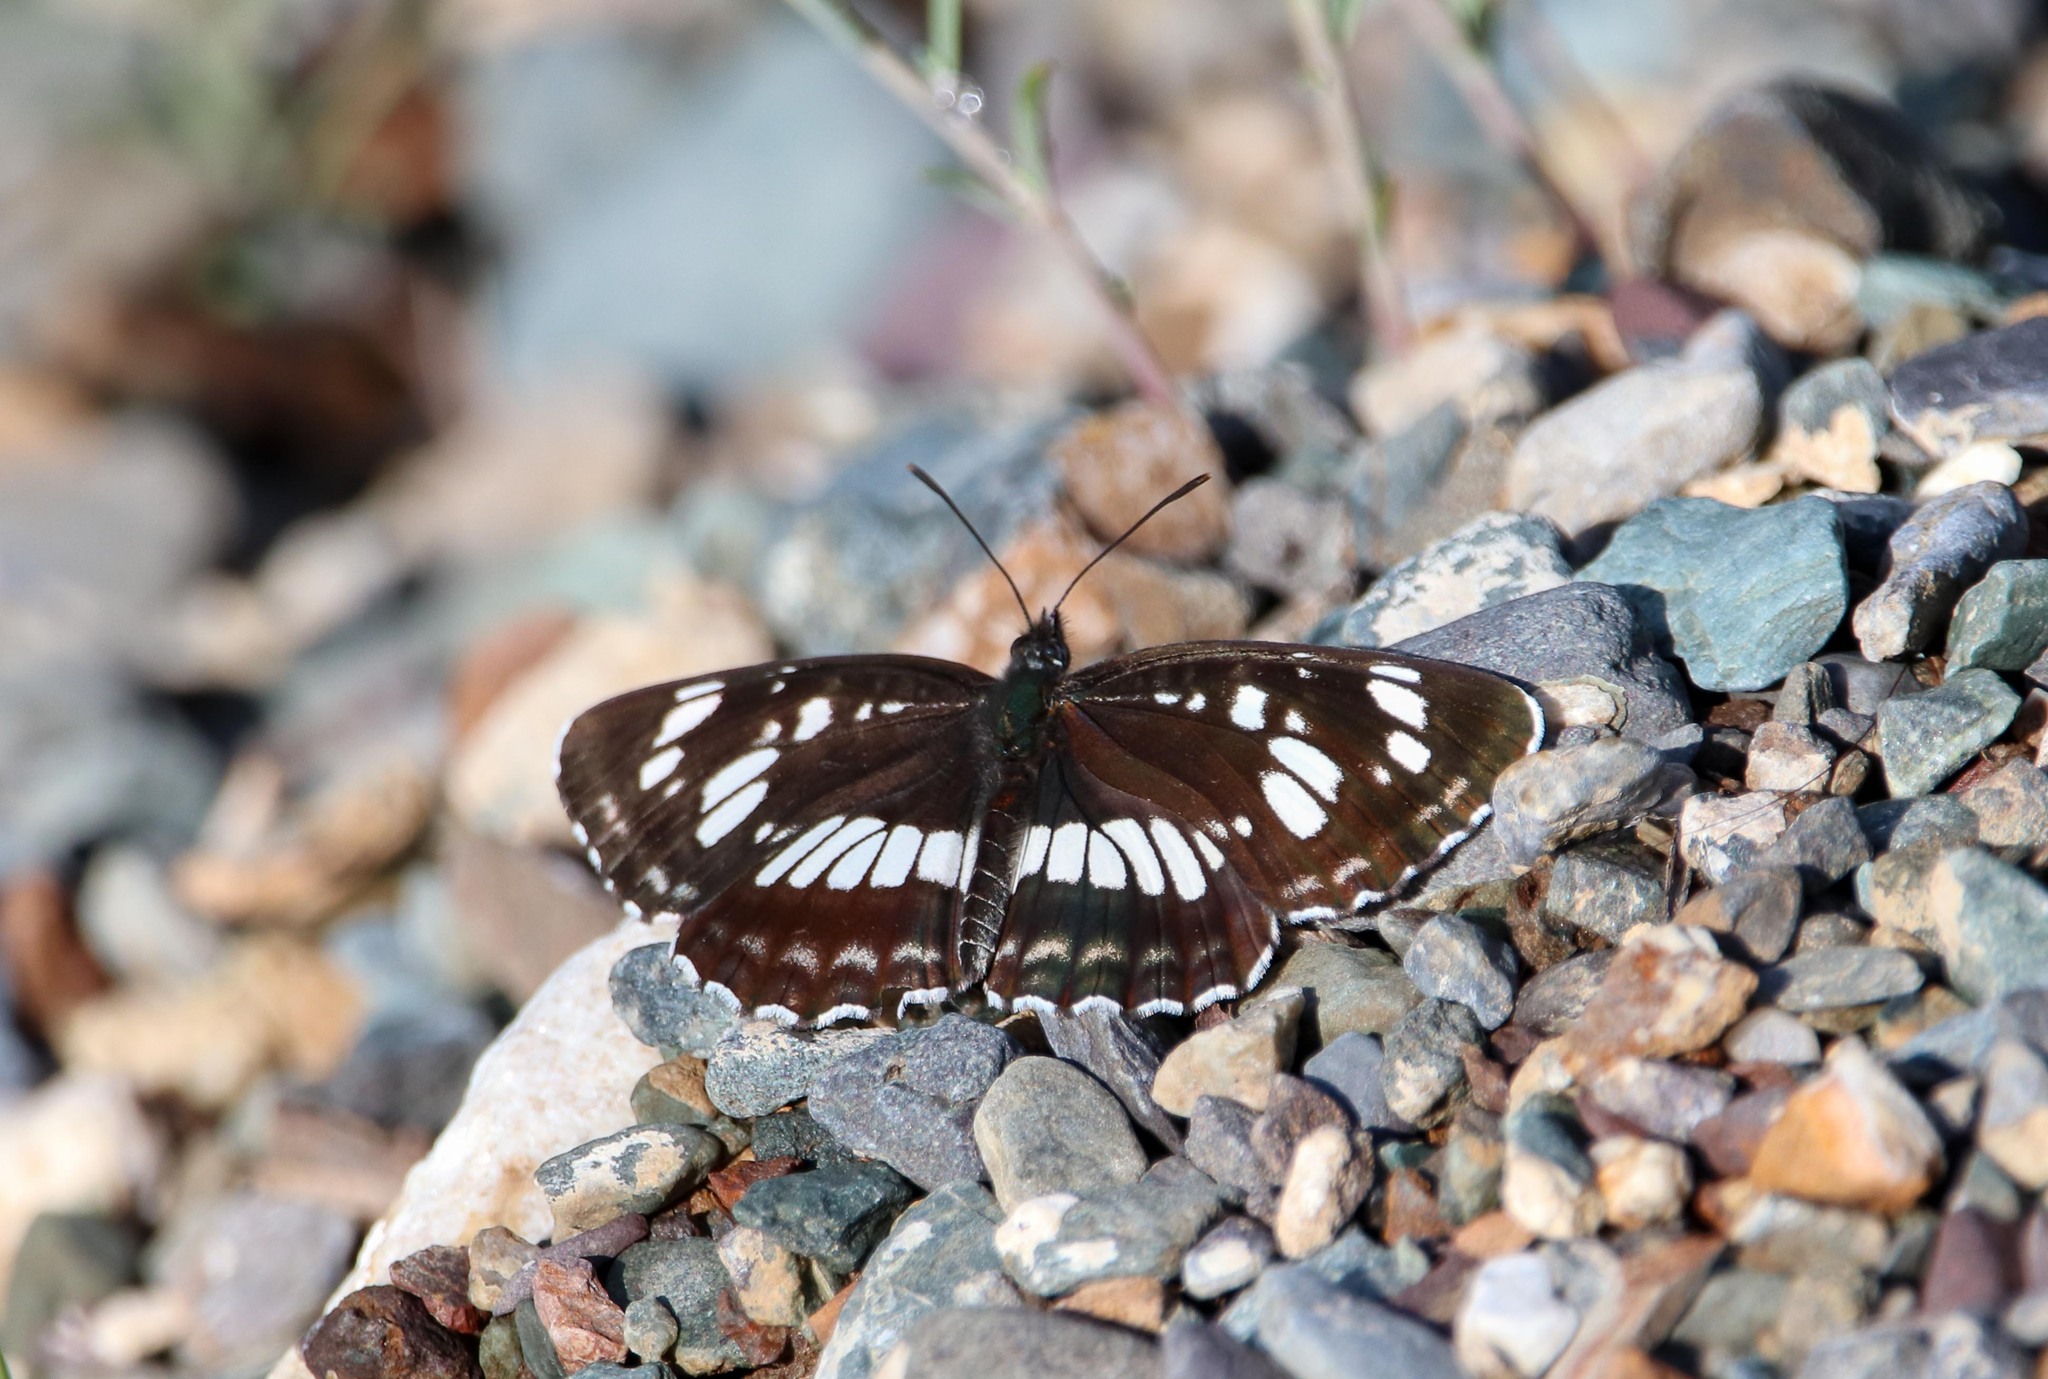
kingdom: Animalia
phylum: Arthropoda
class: Insecta
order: Lepidoptera
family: Nymphalidae
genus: Neptis
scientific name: Neptis rivularis
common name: Hungarian glider
